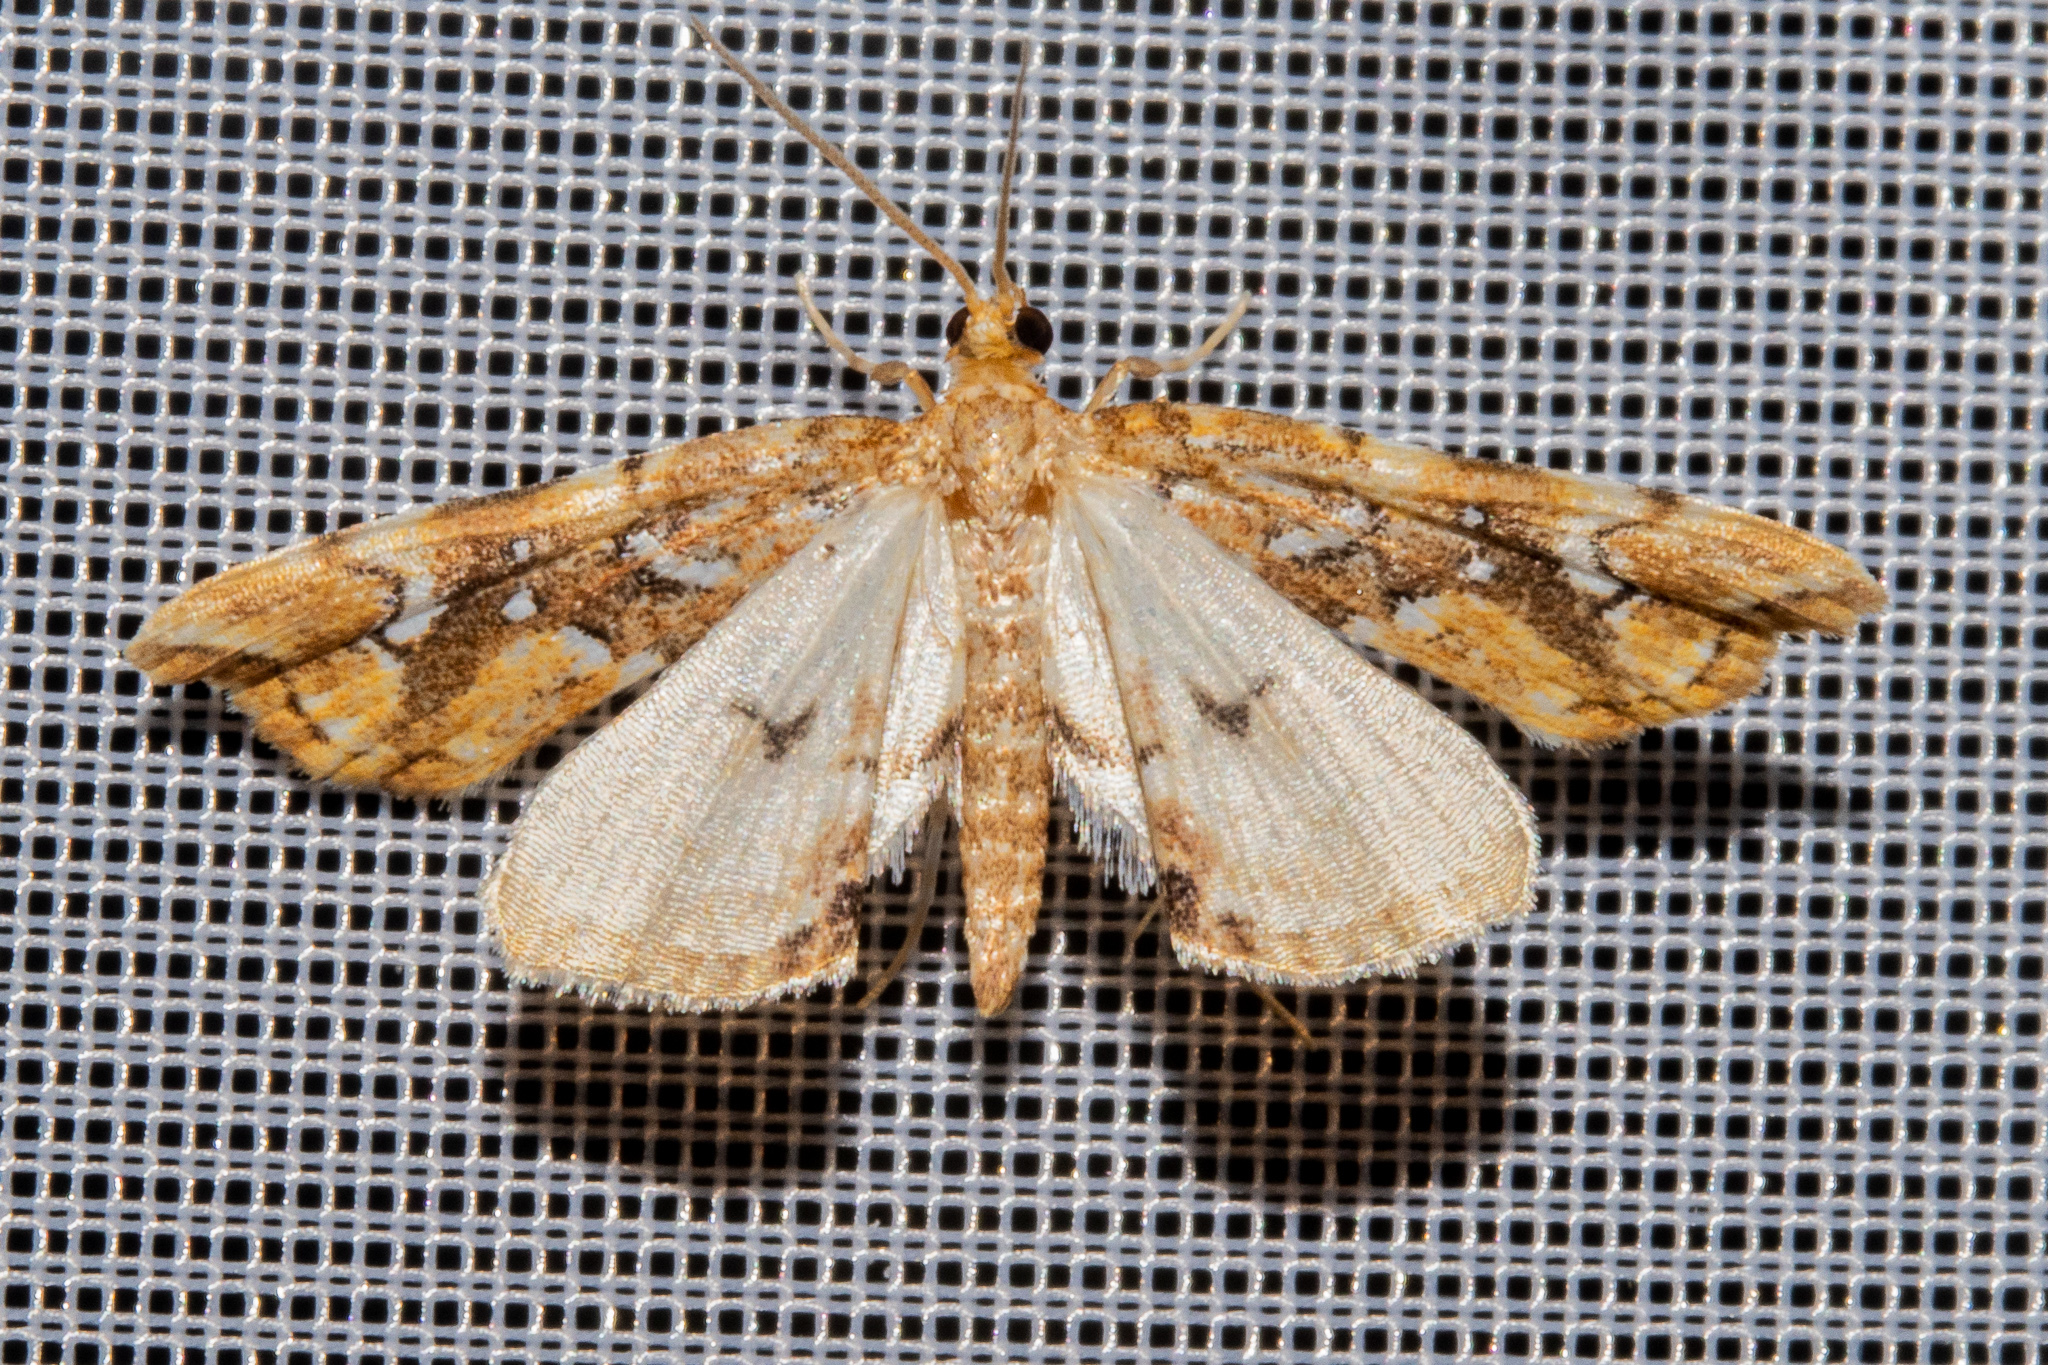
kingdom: Animalia
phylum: Arthropoda
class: Insecta
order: Lepidoptera
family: Pyralidae
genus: Musotima
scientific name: Musotima nitidalis
